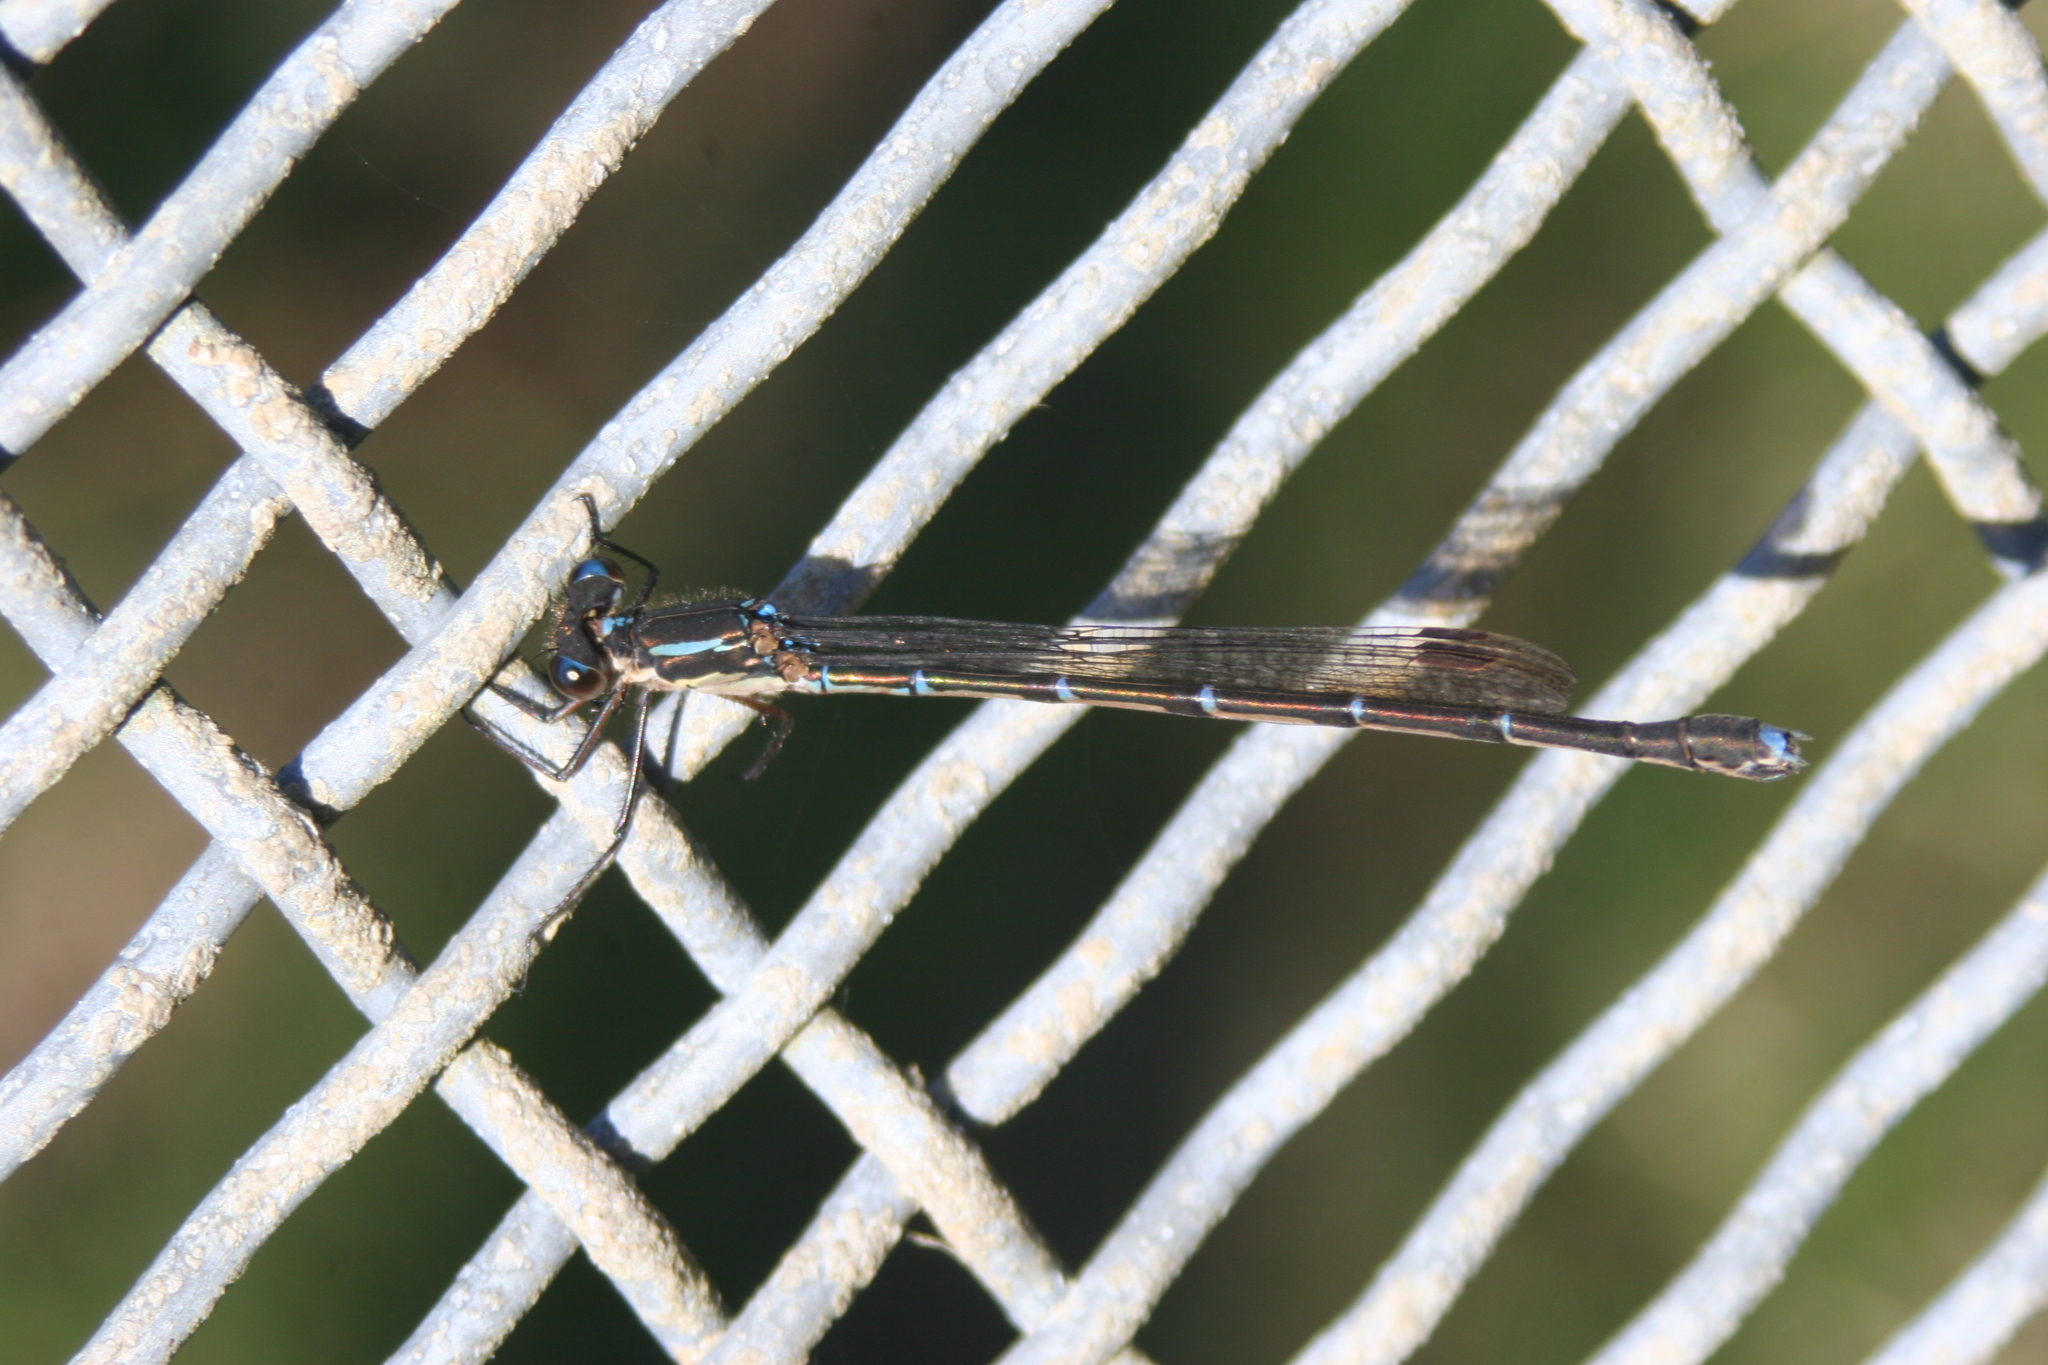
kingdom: Animalia
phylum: Arthropoda
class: Insecta
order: Odonata
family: Lestidae
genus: Austrolestes
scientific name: Austrolestes colensonis
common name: Blue damselfly
